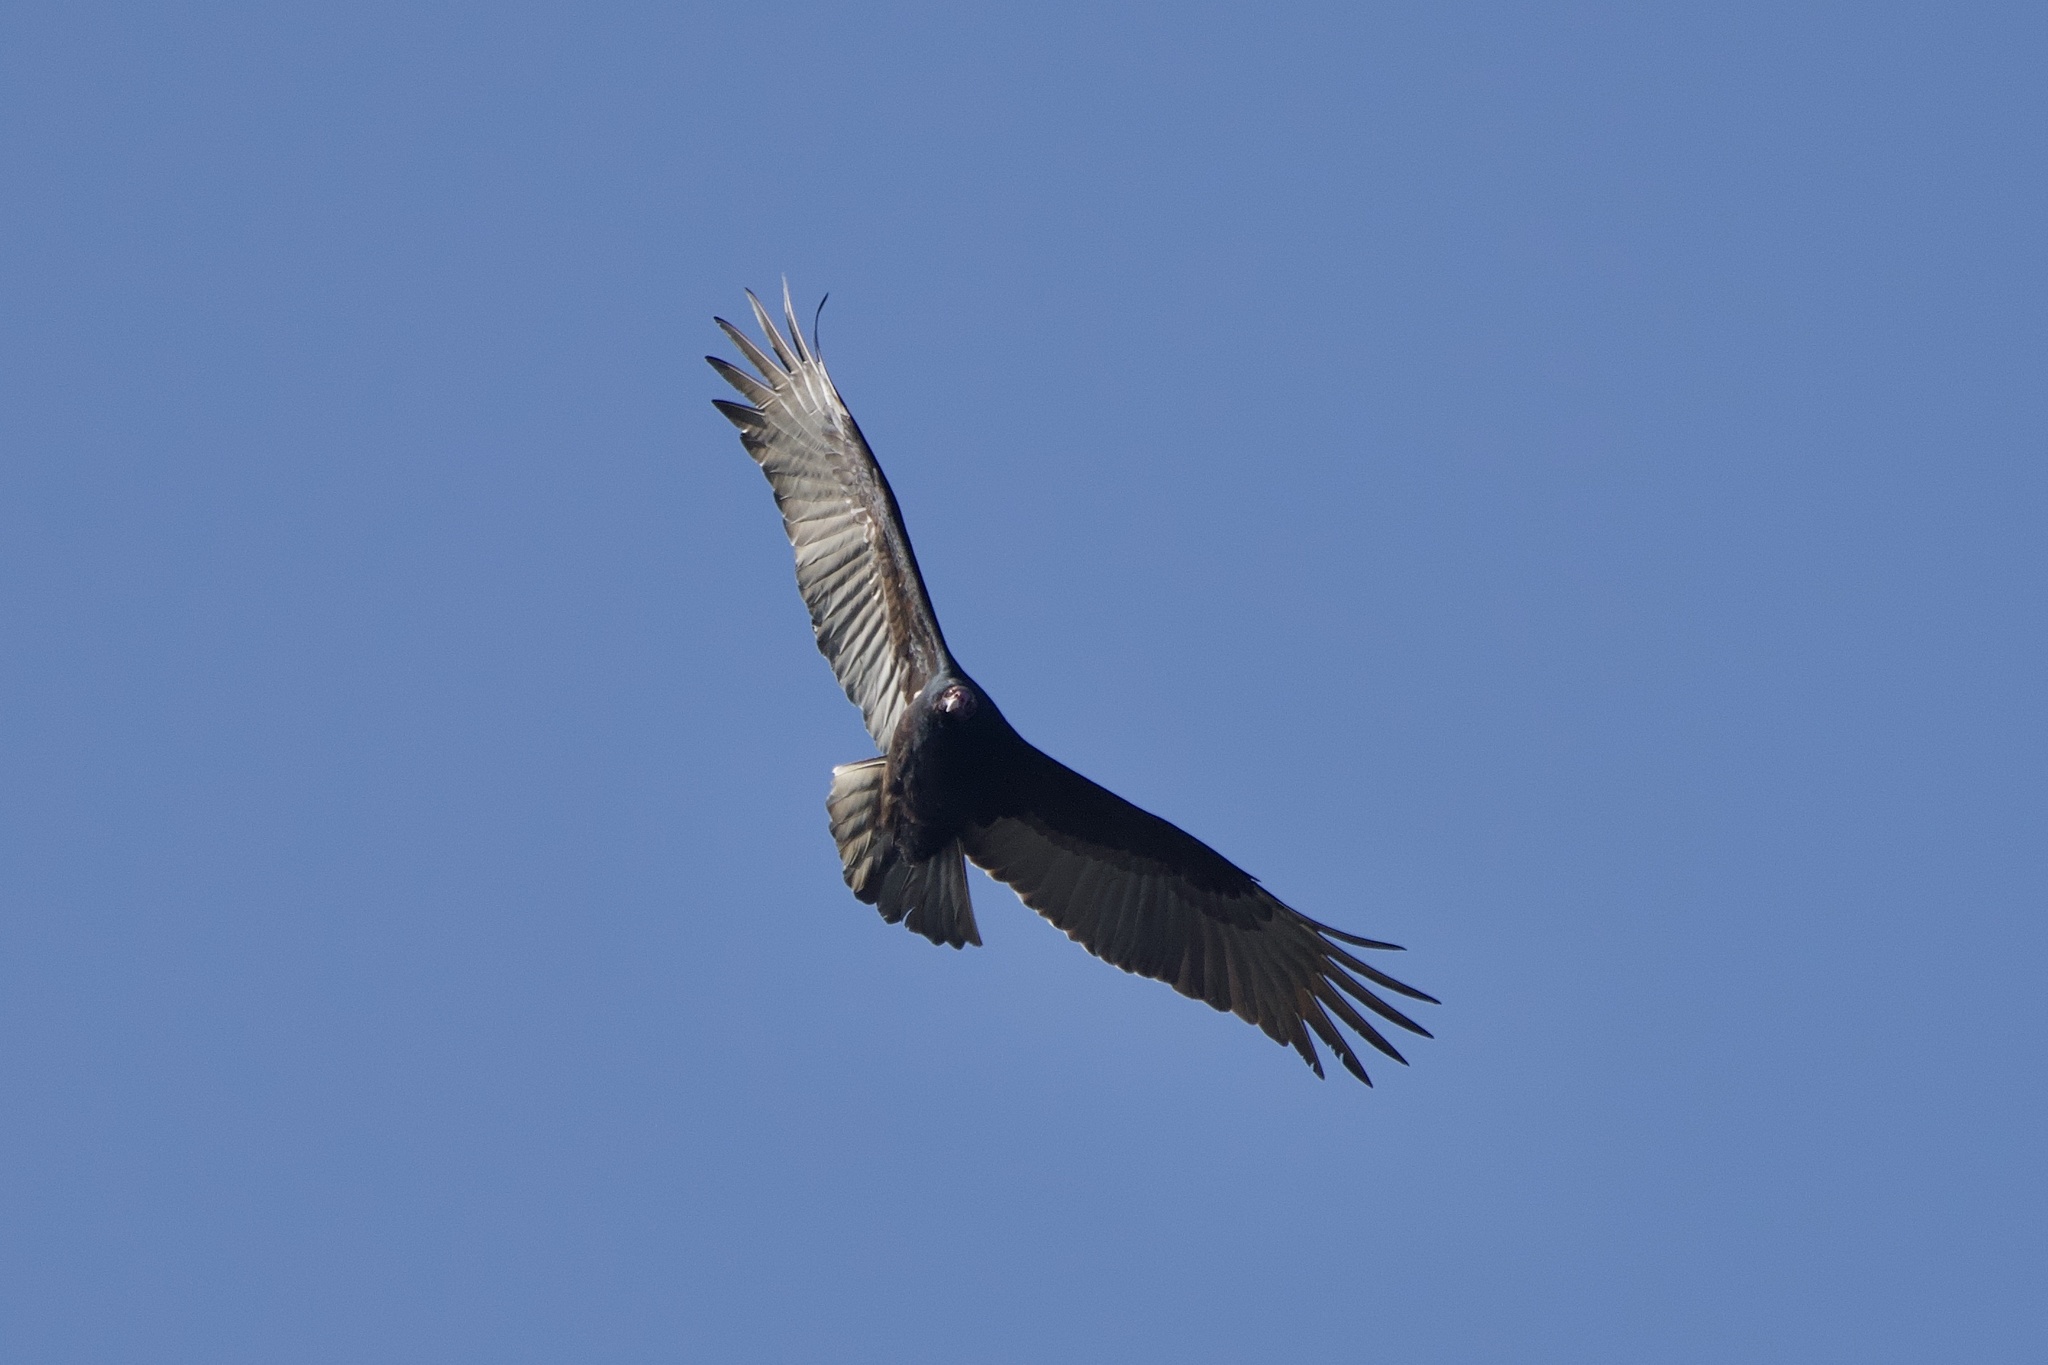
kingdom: Animalia
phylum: Chordata
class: Aves
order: Accipitriformes
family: Cathartidae
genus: Cathartes
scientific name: Cathartes aura
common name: Turkey vulture
